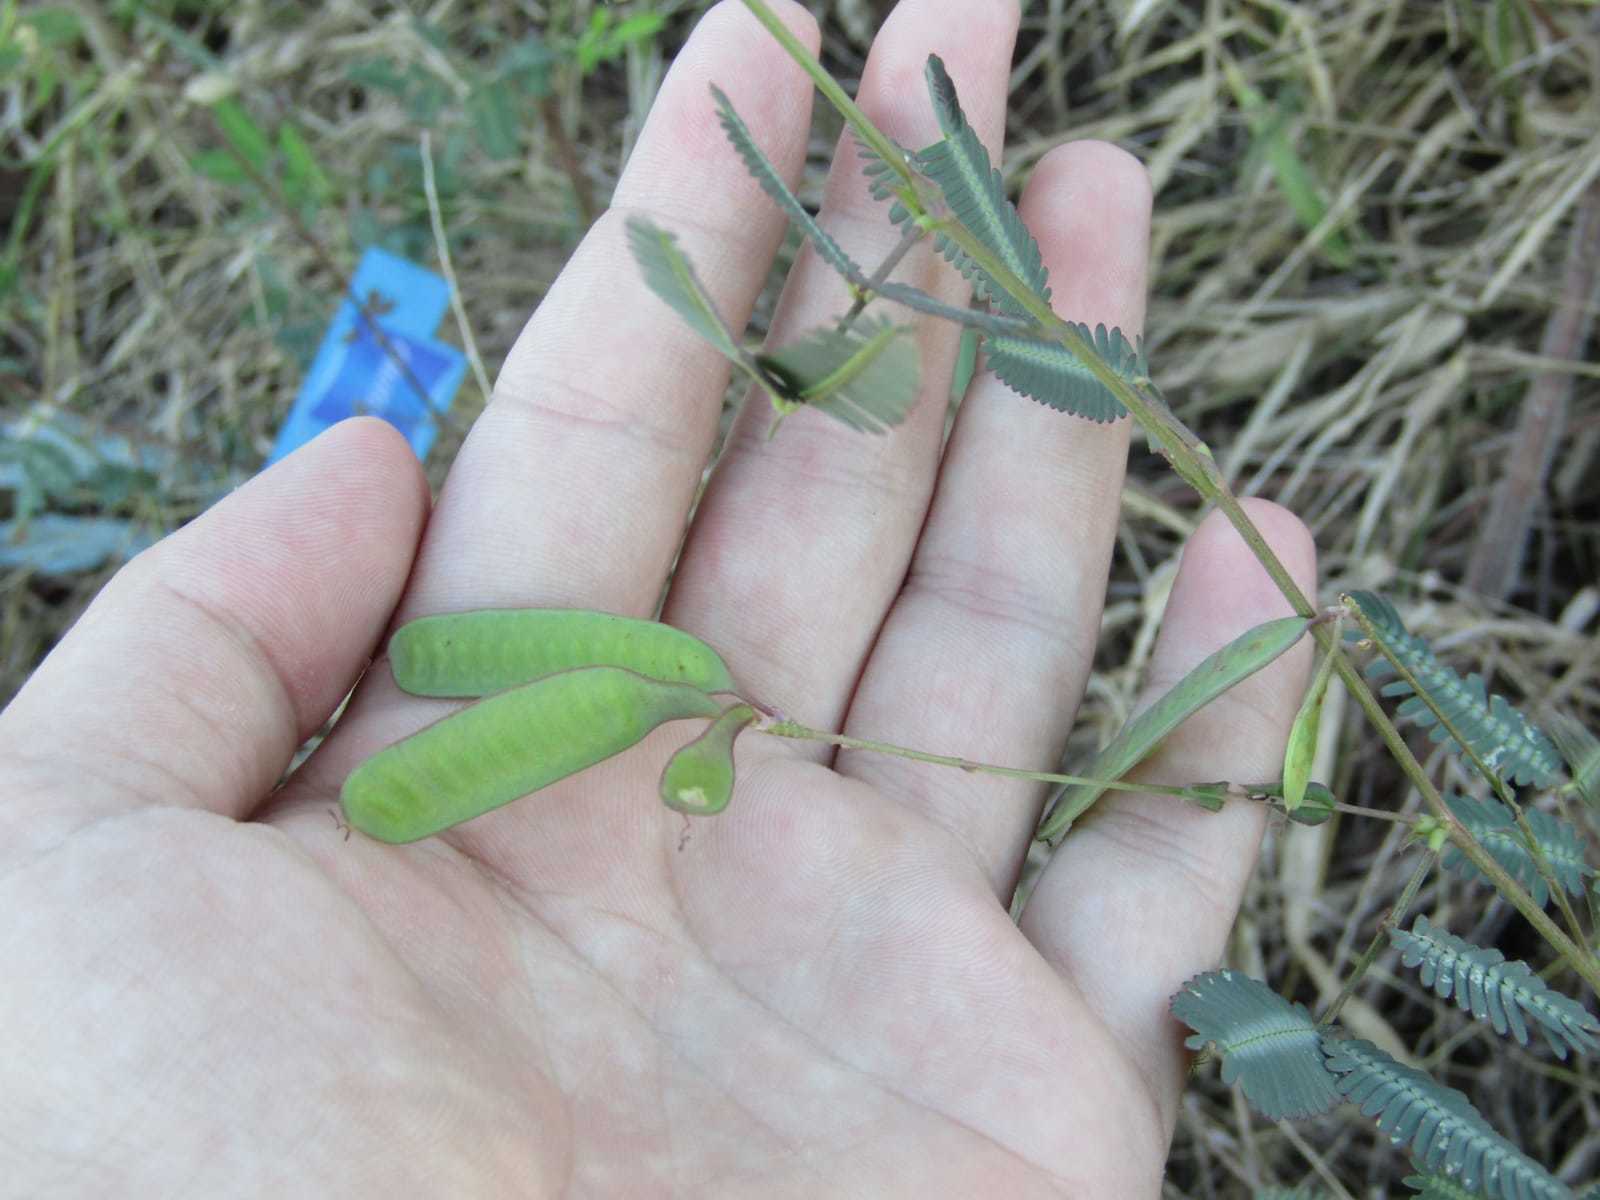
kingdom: Plantae
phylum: Tracheophyta
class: Magnoliopsida
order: Fabales
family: Fabaceae
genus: Neptunia
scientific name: Neptunia plena
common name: Dead and awake
